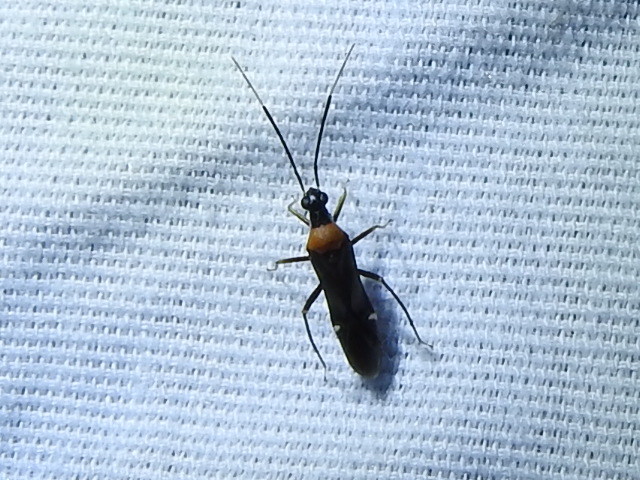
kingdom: Animalia
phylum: Arthropoda
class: Insecta
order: Hemiptera
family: Miridae
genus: Pseudoxenetus
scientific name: Pseudoxenetus regalis
